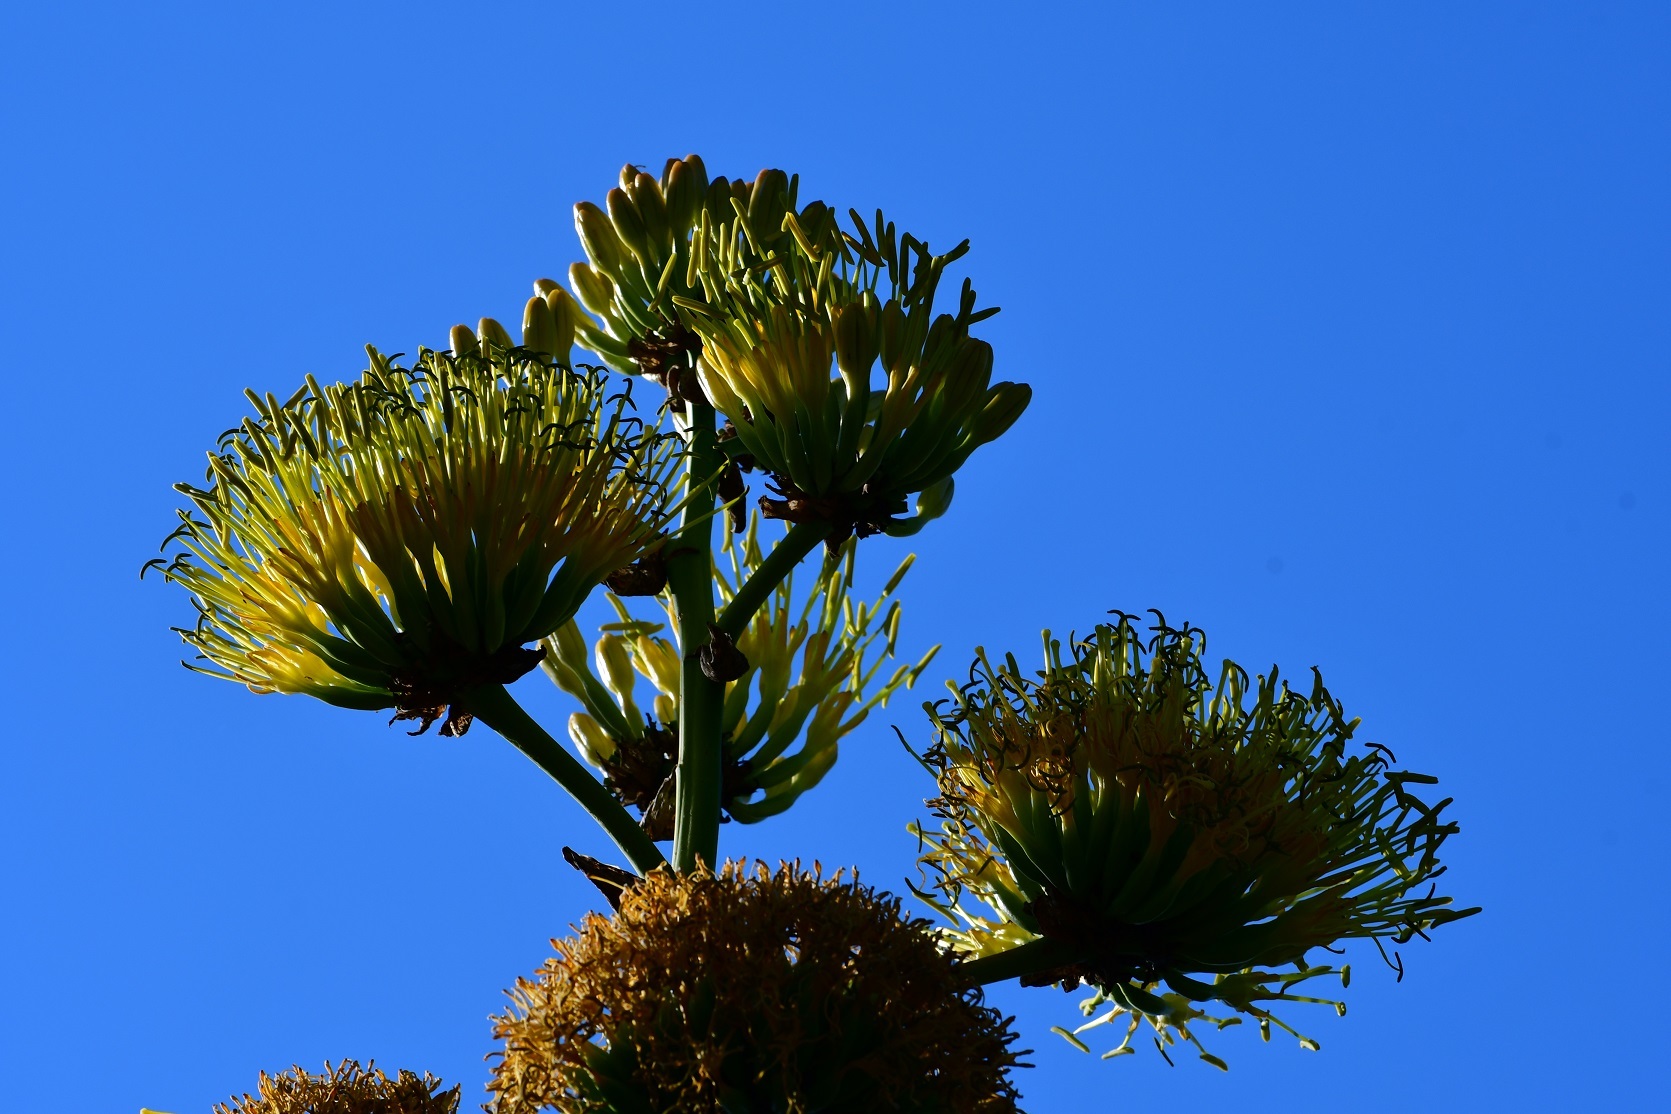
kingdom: Plantae
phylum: Tracheophyta
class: Liliopsida
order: Asparagales
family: Asparagaceae
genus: Agave
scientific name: Agave kewensis
